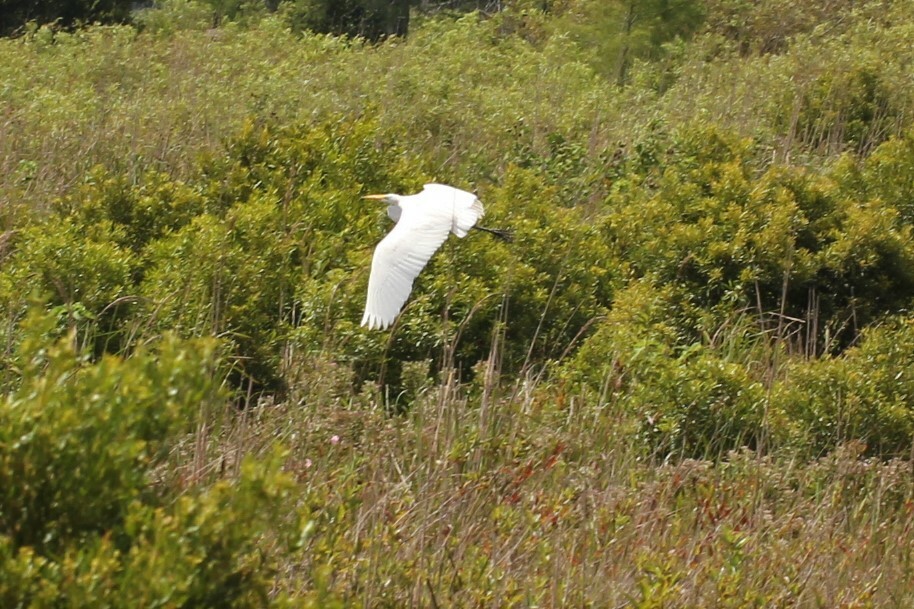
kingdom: Animalia
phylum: Chordata
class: Aves
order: Pelecaniformes
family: Ardeidae
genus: Ardea
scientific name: Ardea alba
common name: Great egret
